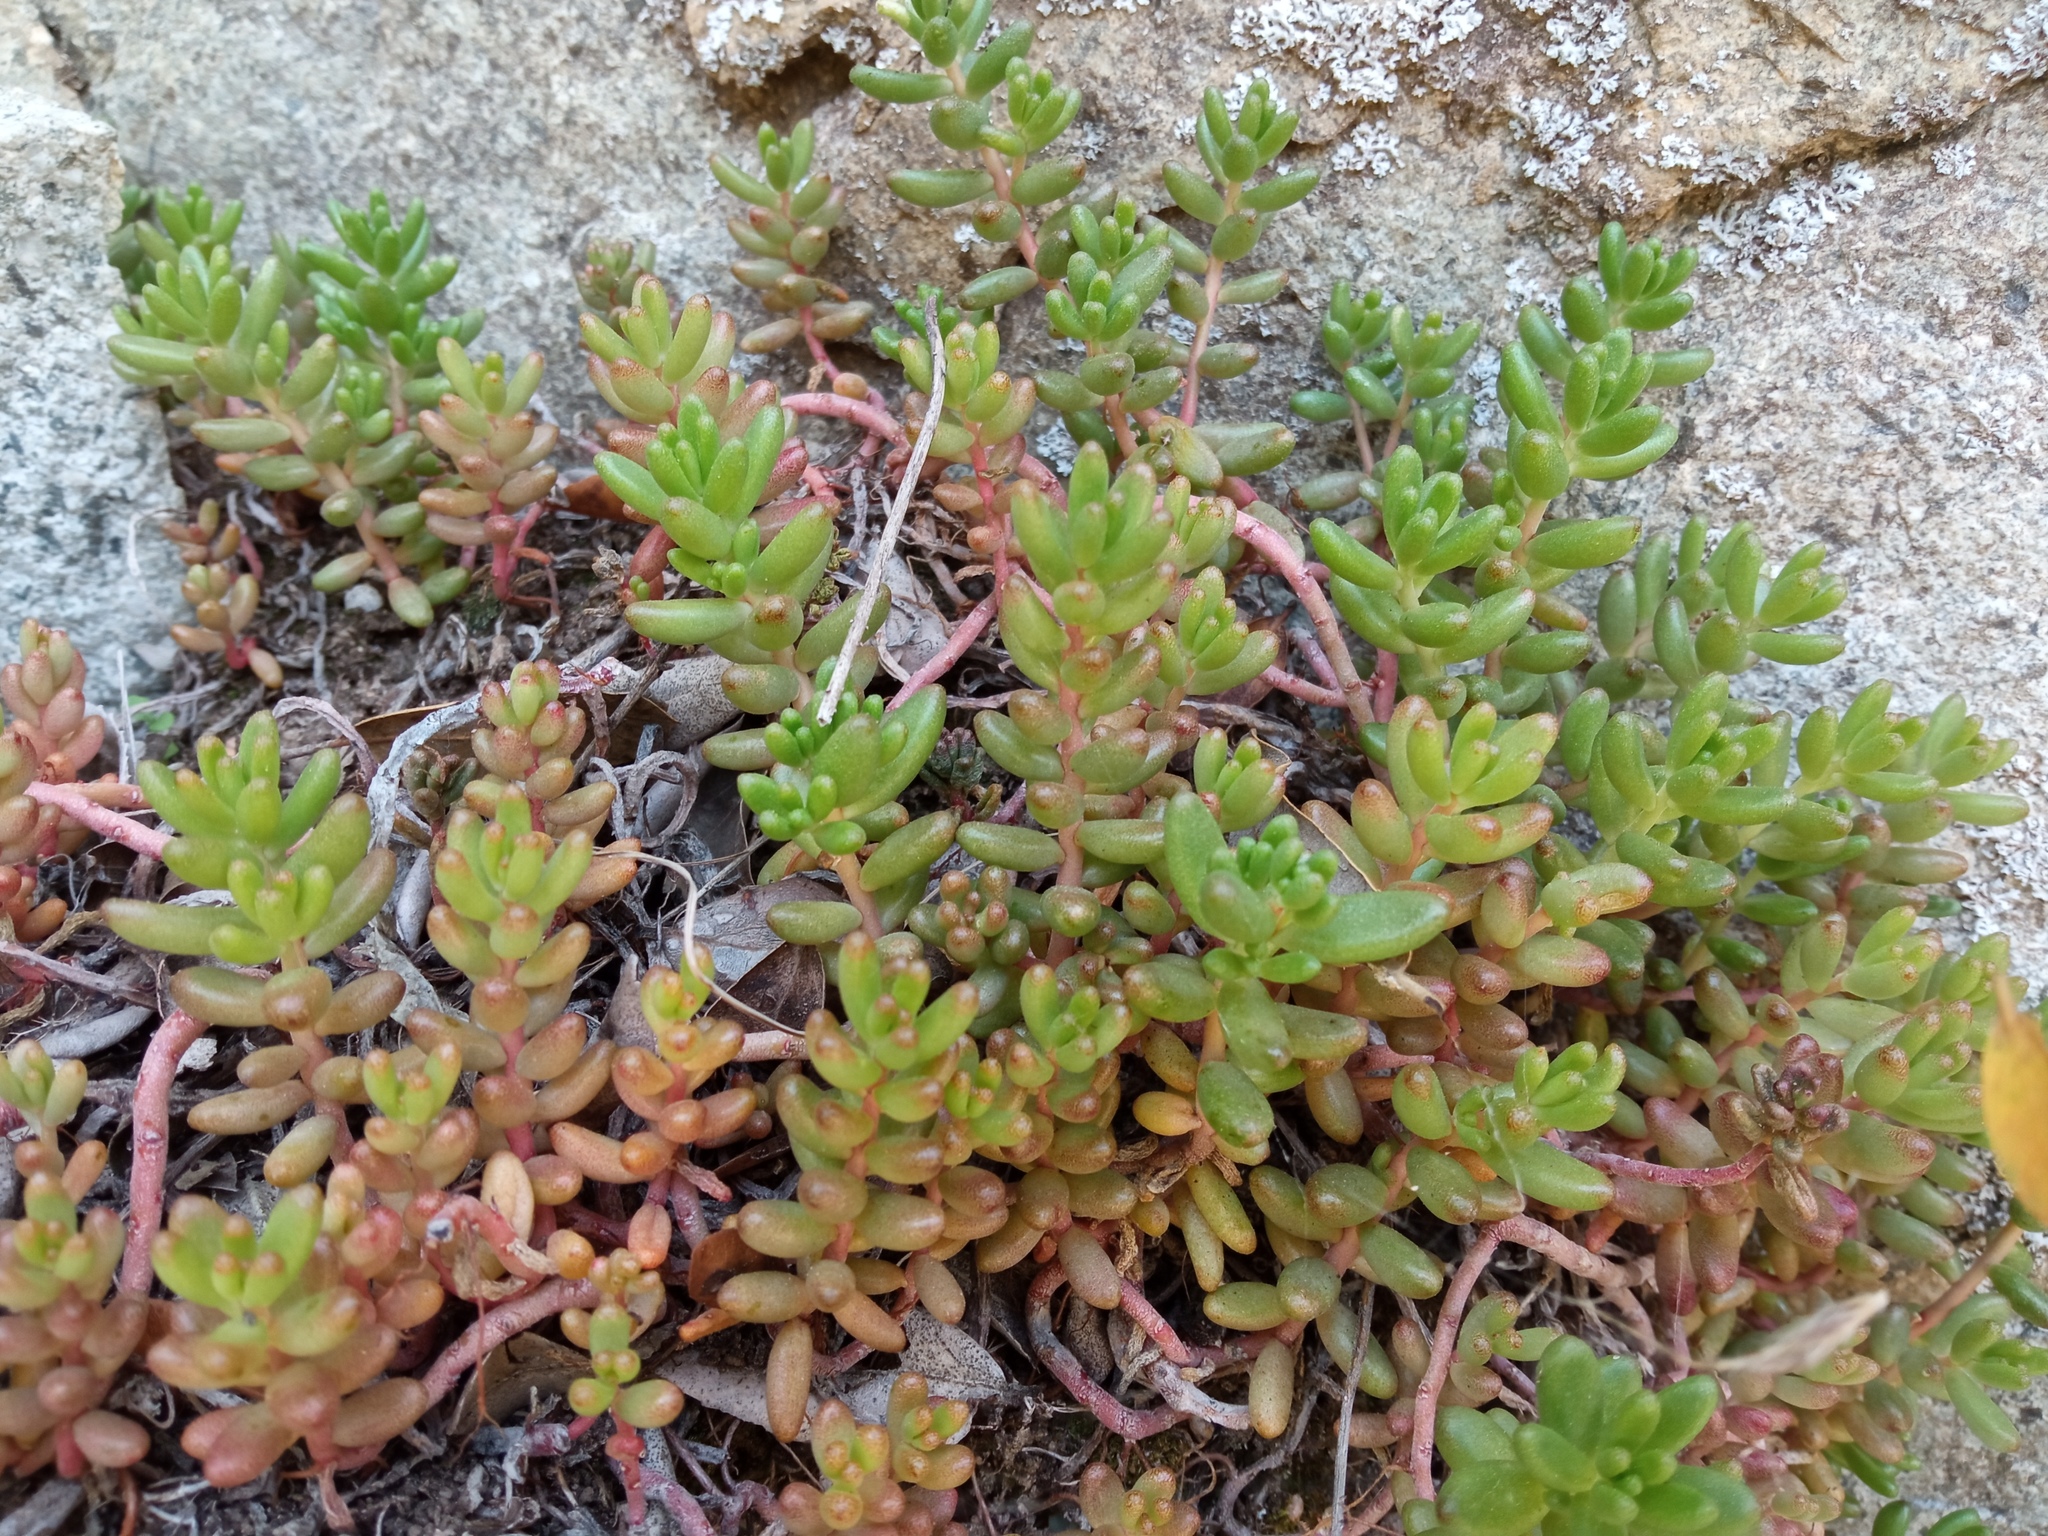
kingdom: Plantae
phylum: Tracheophyta
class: Magnoliopsida
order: Saxifragales
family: Crassulaceae
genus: Sedum
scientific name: Sedum album
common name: White stonecrop
